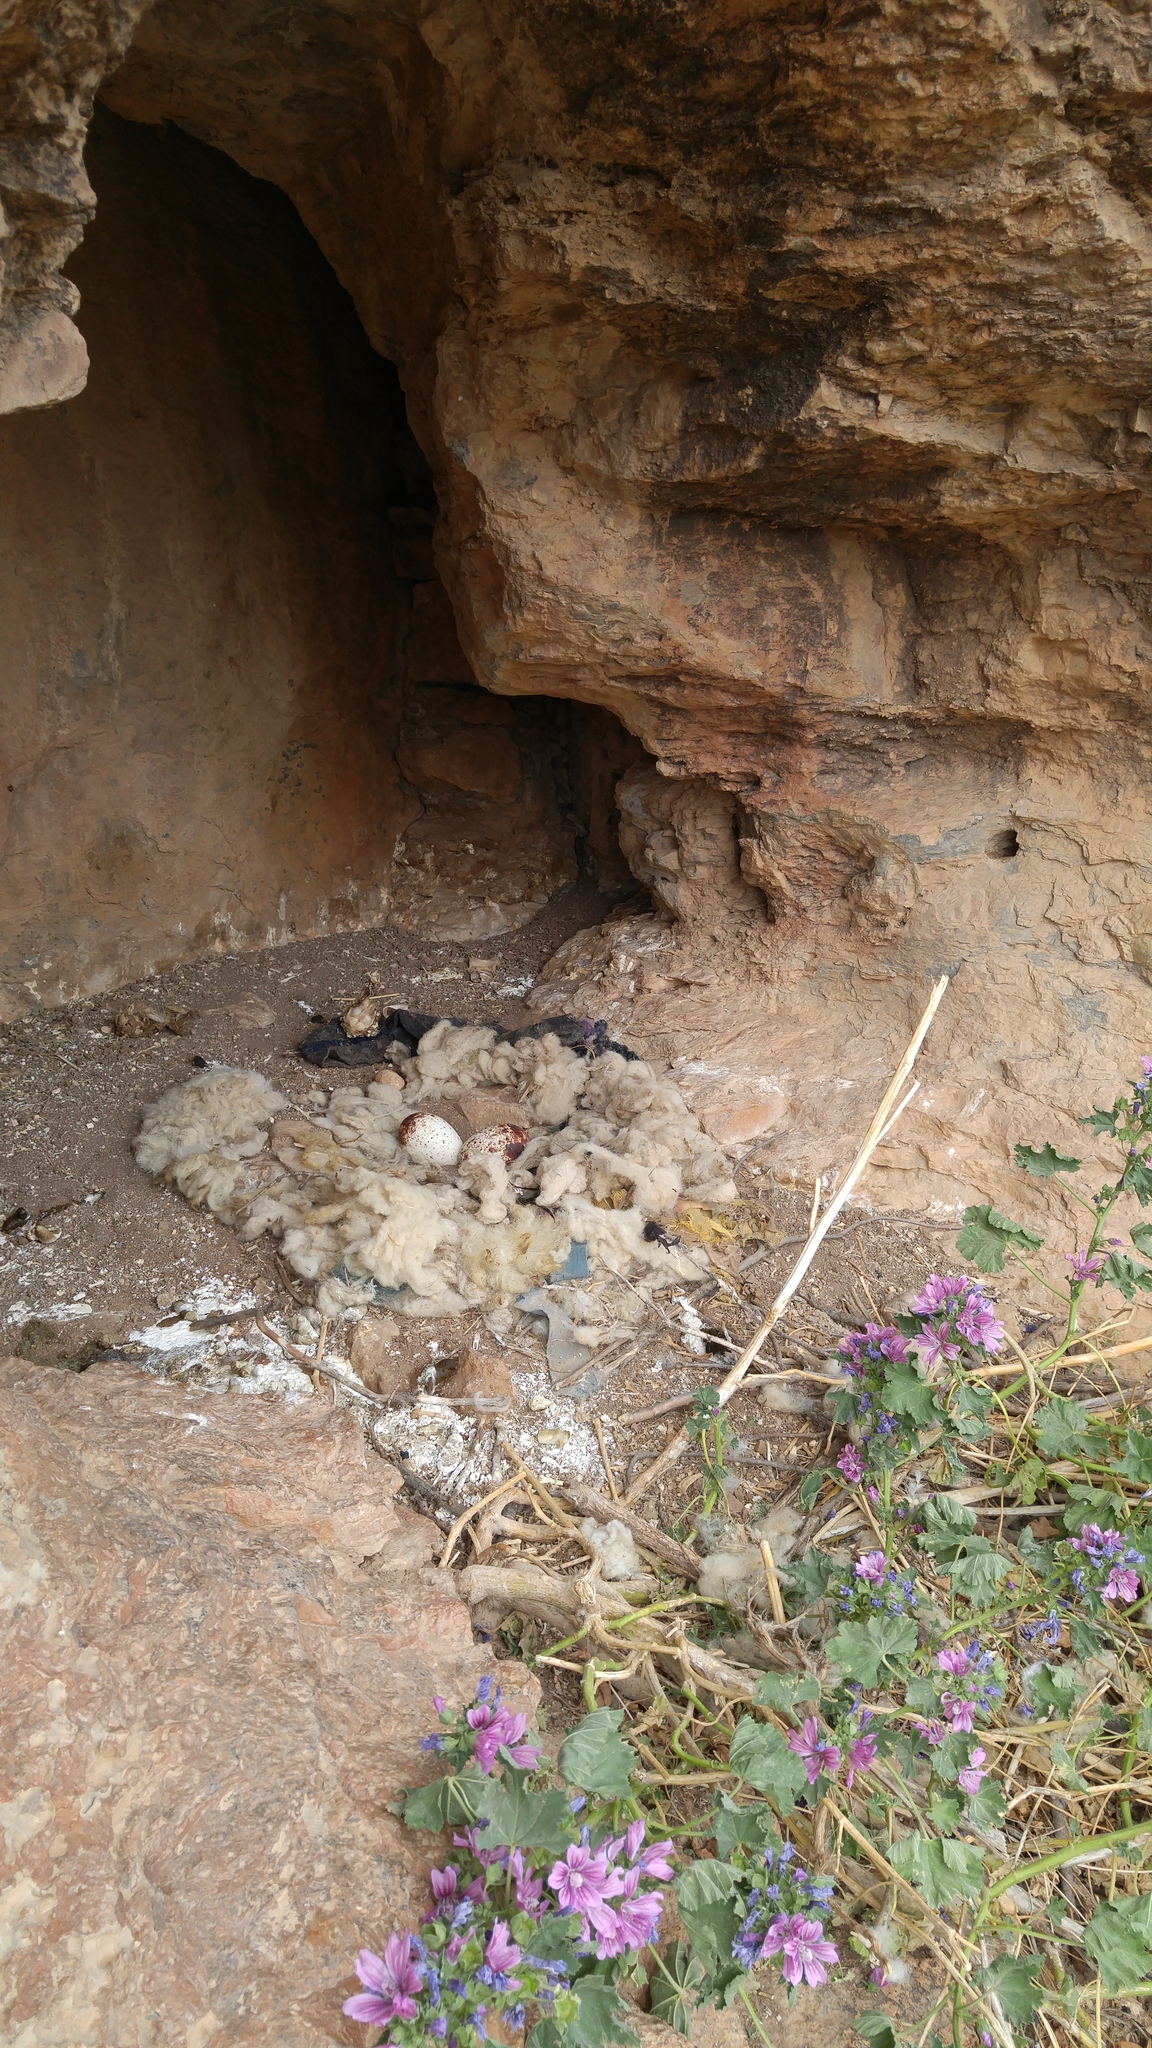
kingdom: Animalia
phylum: Chordata
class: Aves
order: Accipitriformes
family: Accipitridae
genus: Neophron
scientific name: Neophron percnopterus
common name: Egyptian vulture
